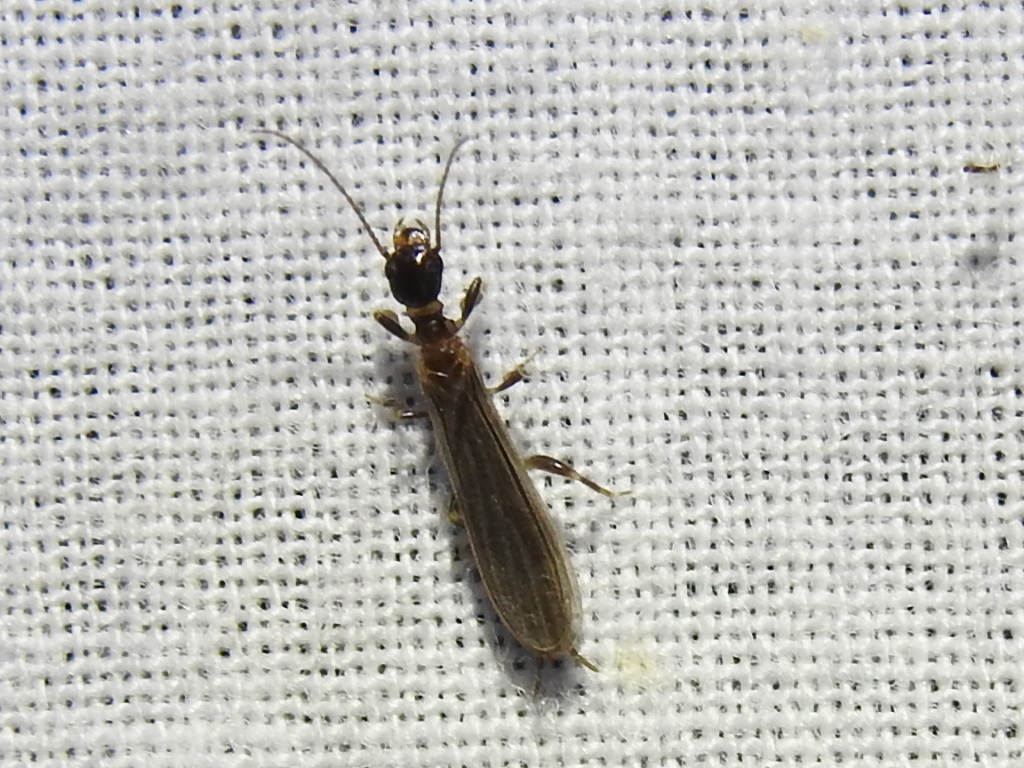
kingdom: Animalia
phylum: Arthropoda
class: Insecta
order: Embioptera
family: Oligotomidae
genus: Oligotoma
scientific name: Oligotoma nigra
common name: Black webspinner
